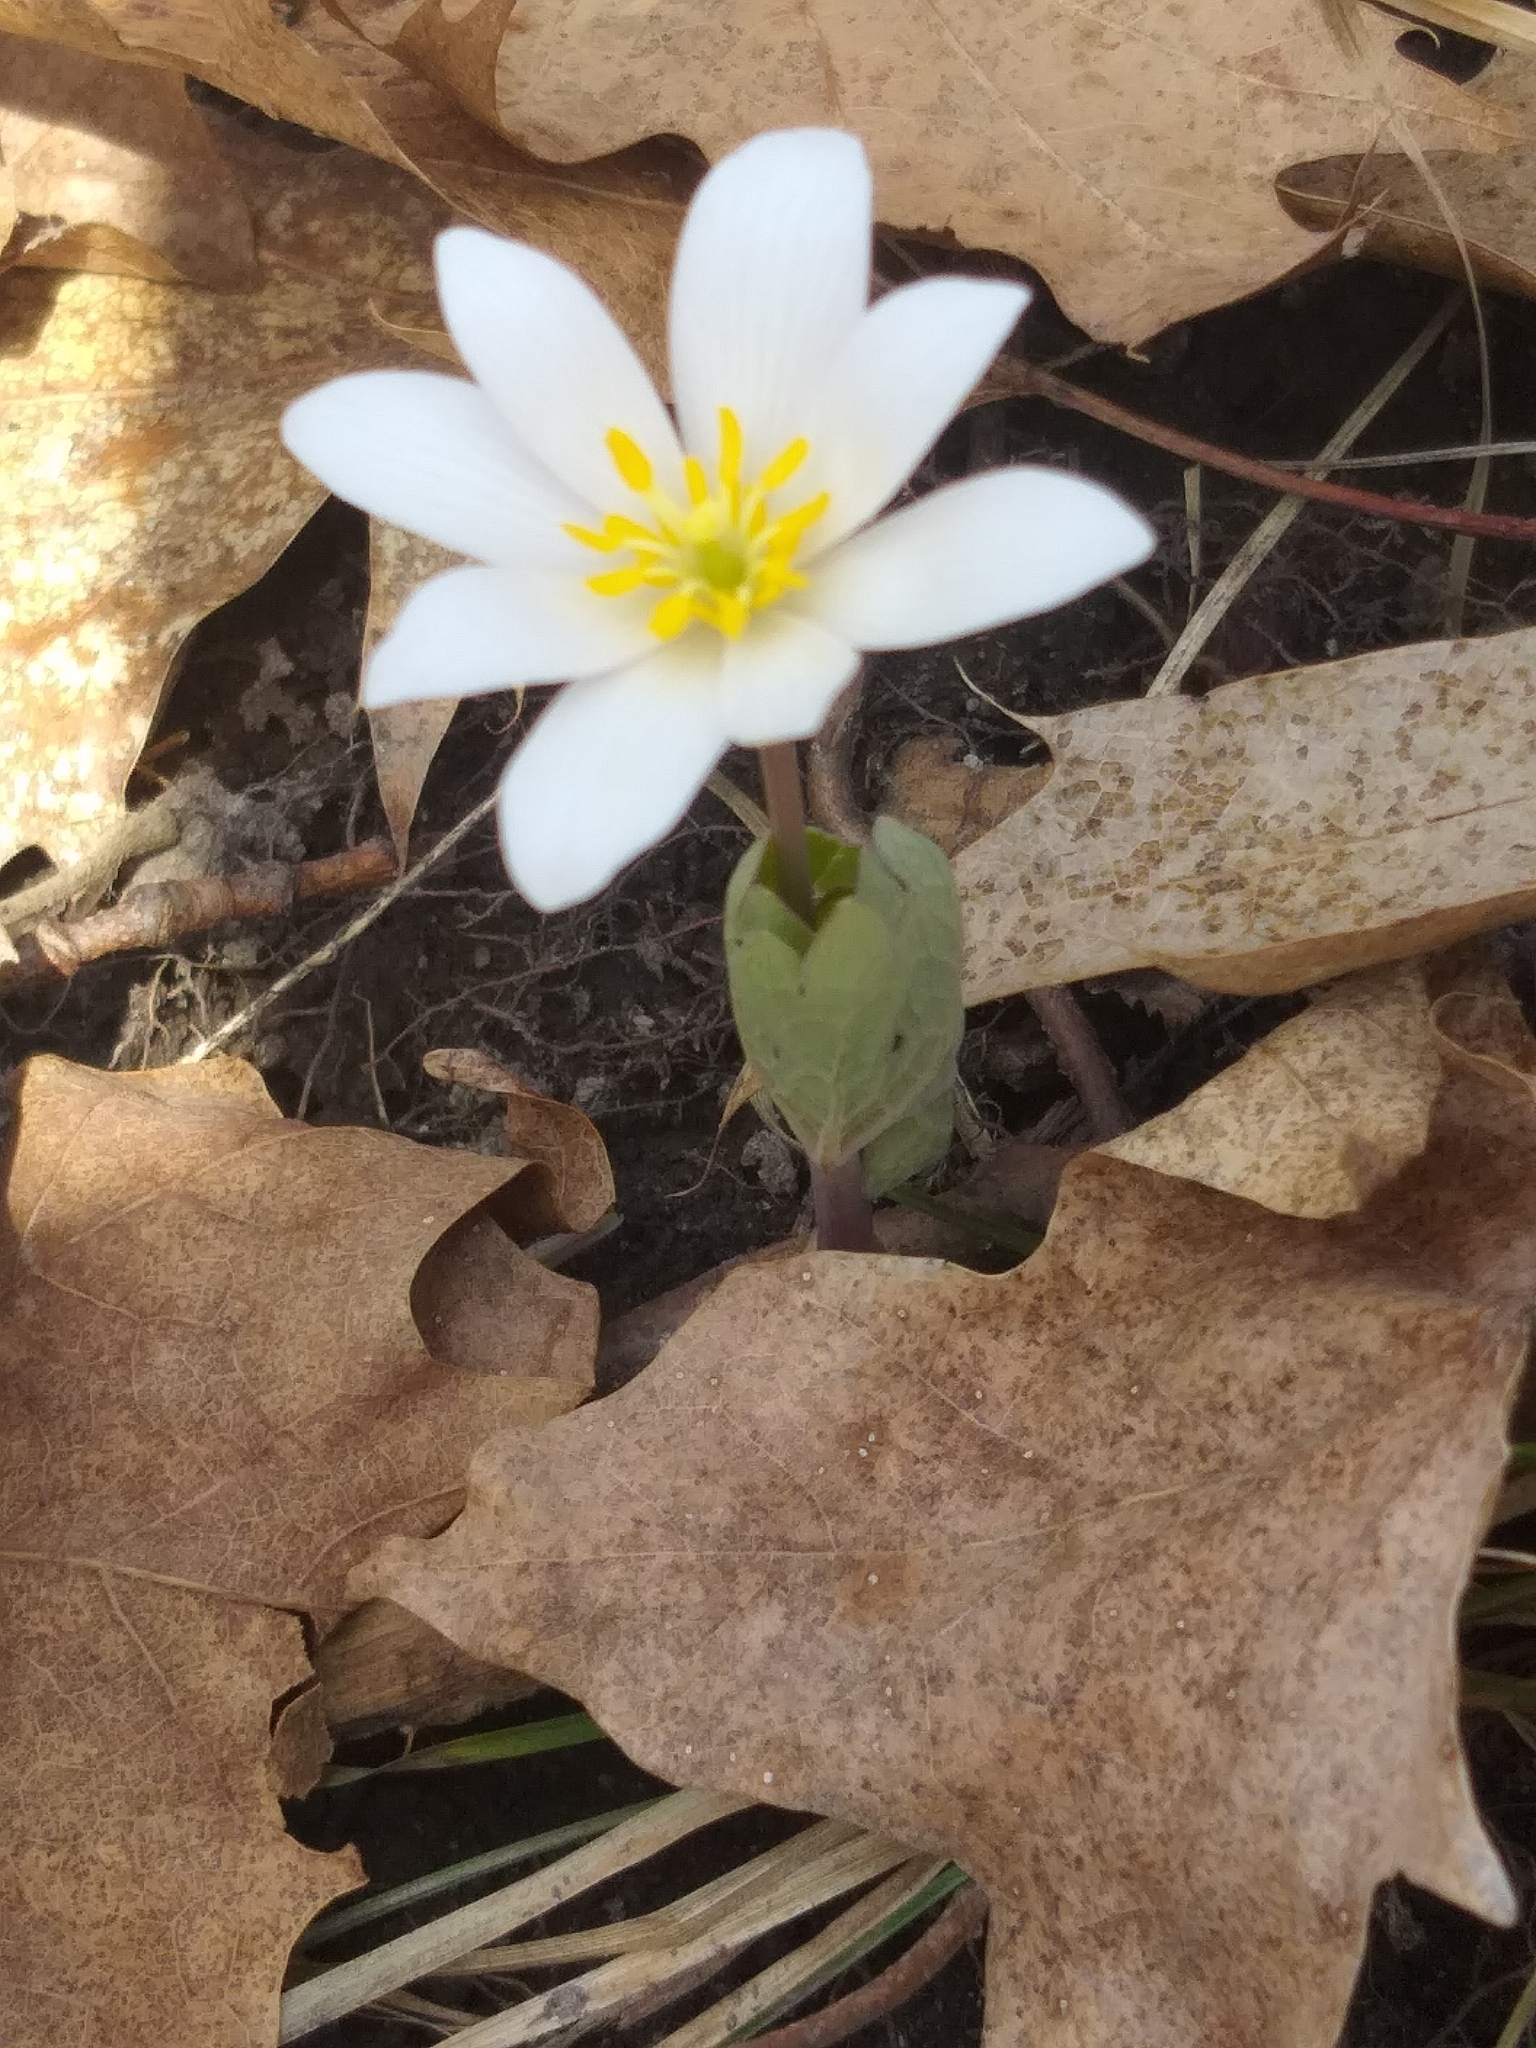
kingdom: Plantae
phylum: Tracheophyta
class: Magnoliopsida
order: Ranunculales
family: Papaveraceae
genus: Sanguinaria
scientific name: Sanguinaria canadensis
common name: Bloodroot
